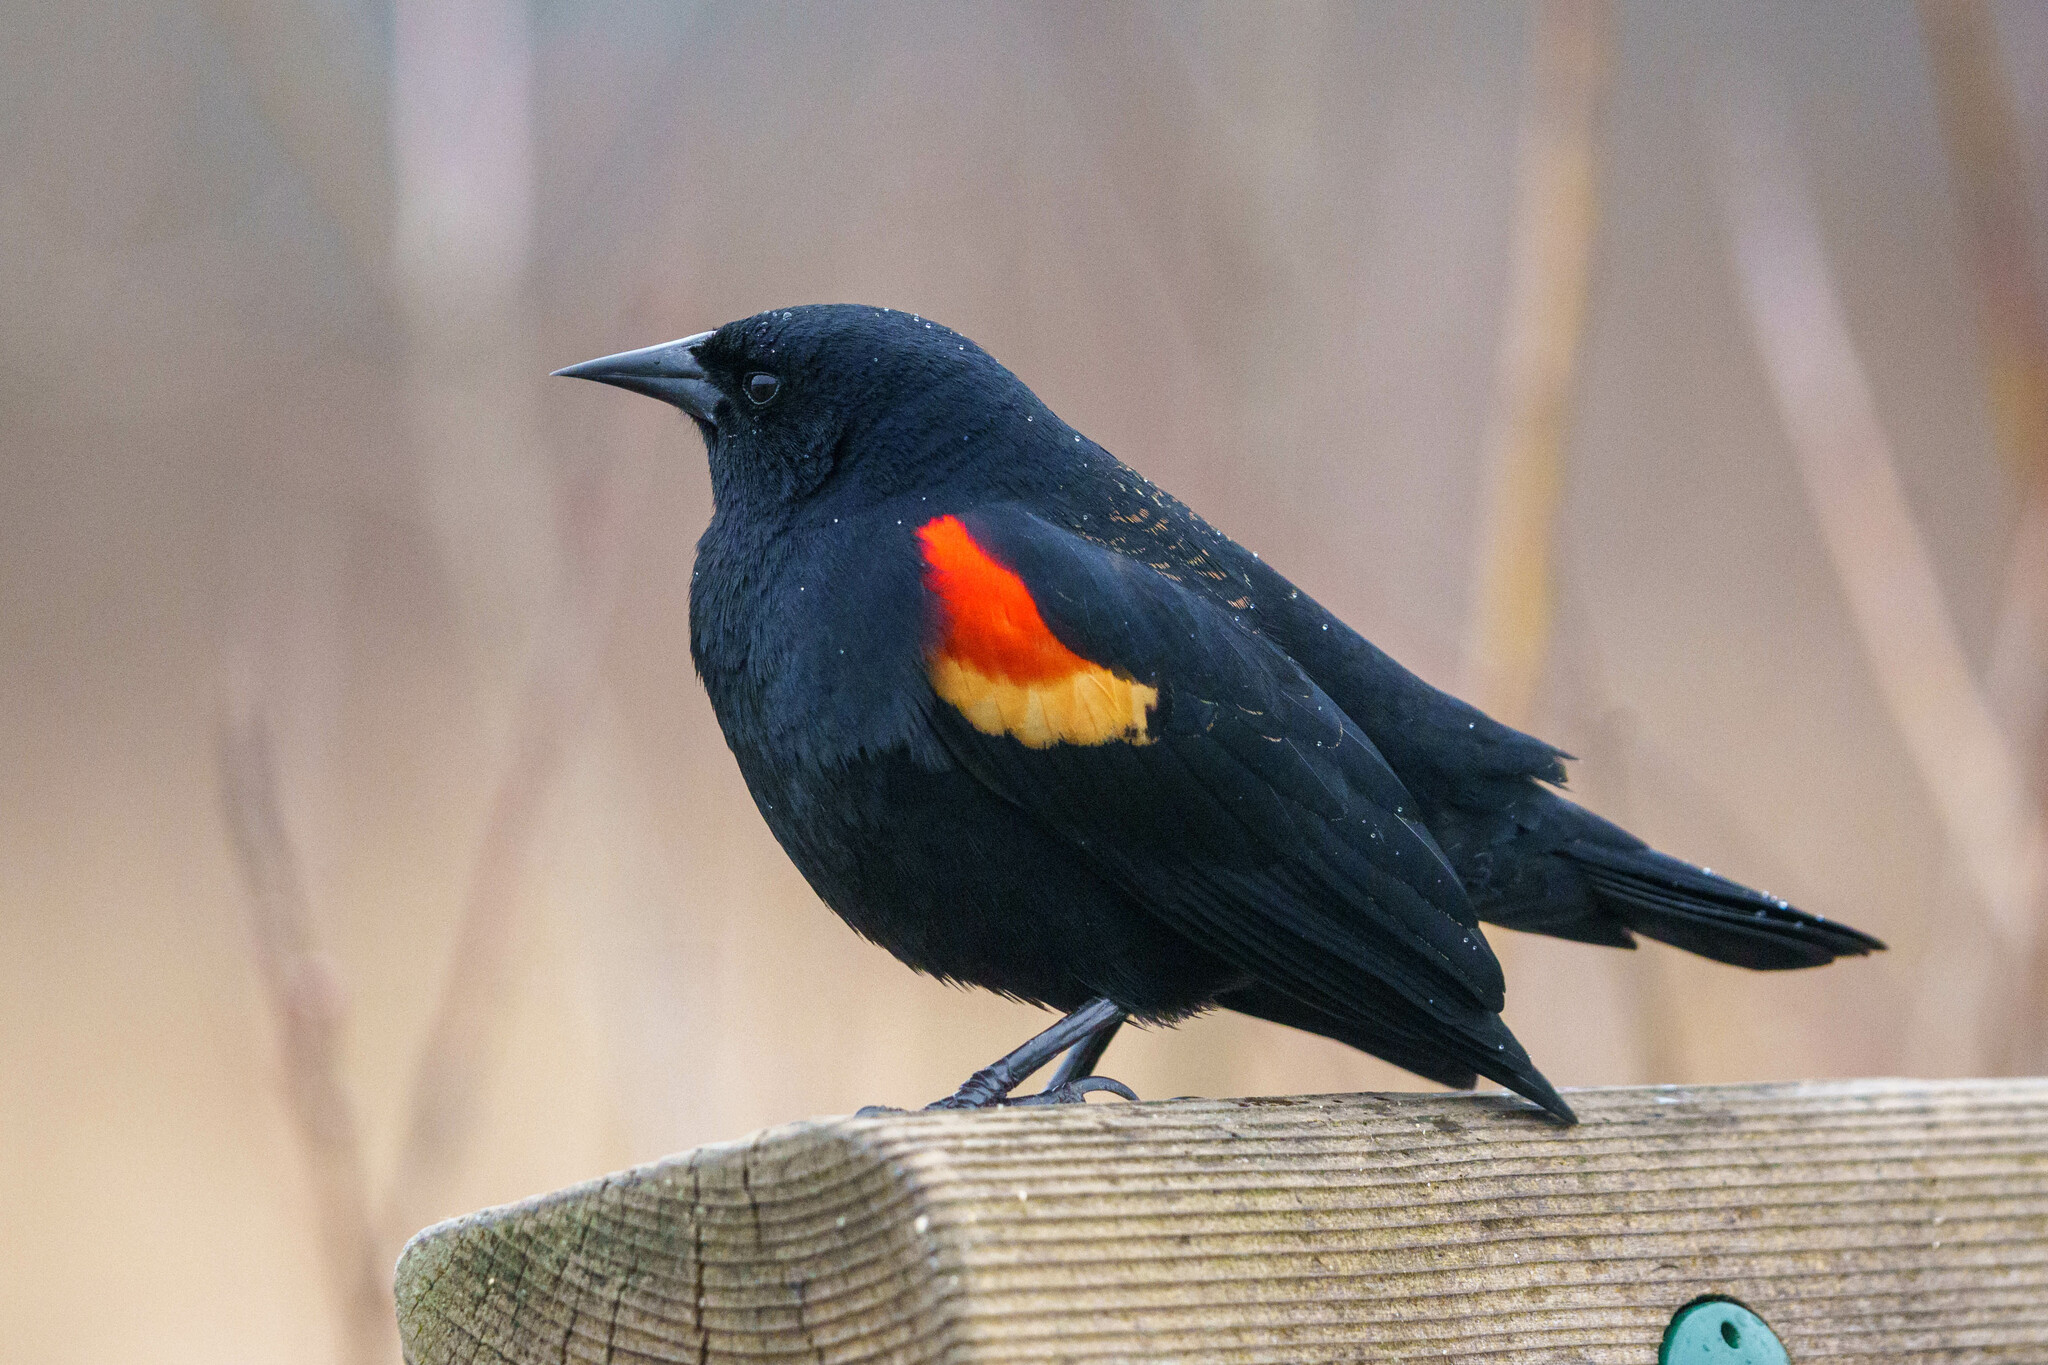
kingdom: Animalia
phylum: Chordata
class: Aves
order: Passeriformes
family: Icteridae
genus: Agelaius
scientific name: Agelaius phoeniceus
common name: Red-winged blackbird
